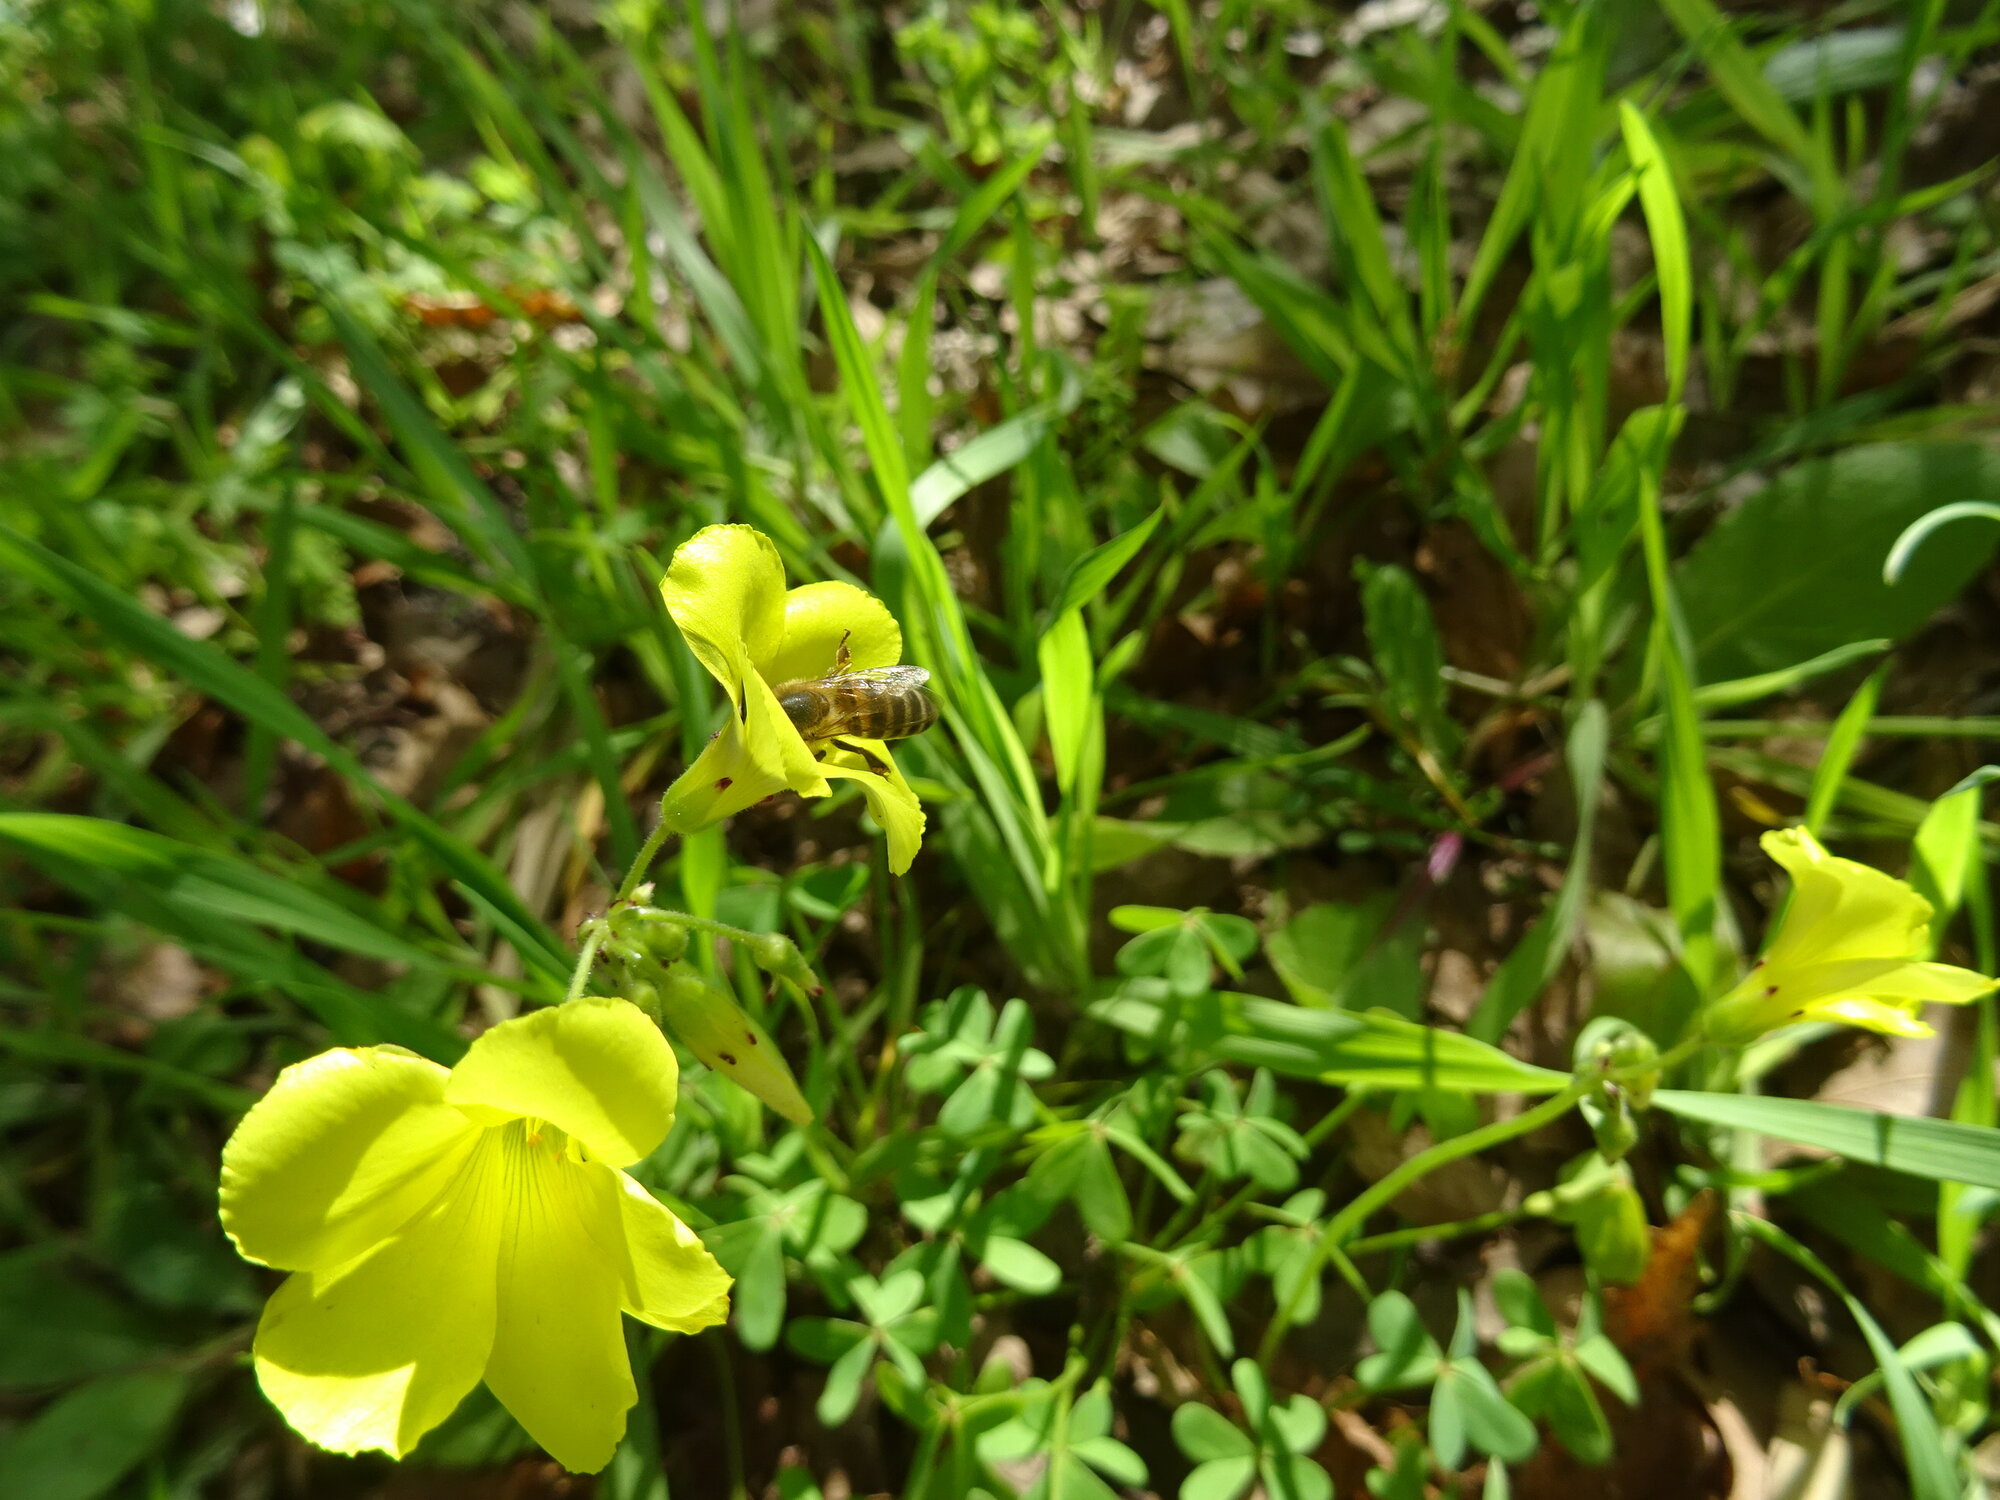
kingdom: Animalia
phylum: Arthropoda
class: Insecta
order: Hymenoptera
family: Apidae
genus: Apis
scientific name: Apis mellifera
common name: Honey bee
